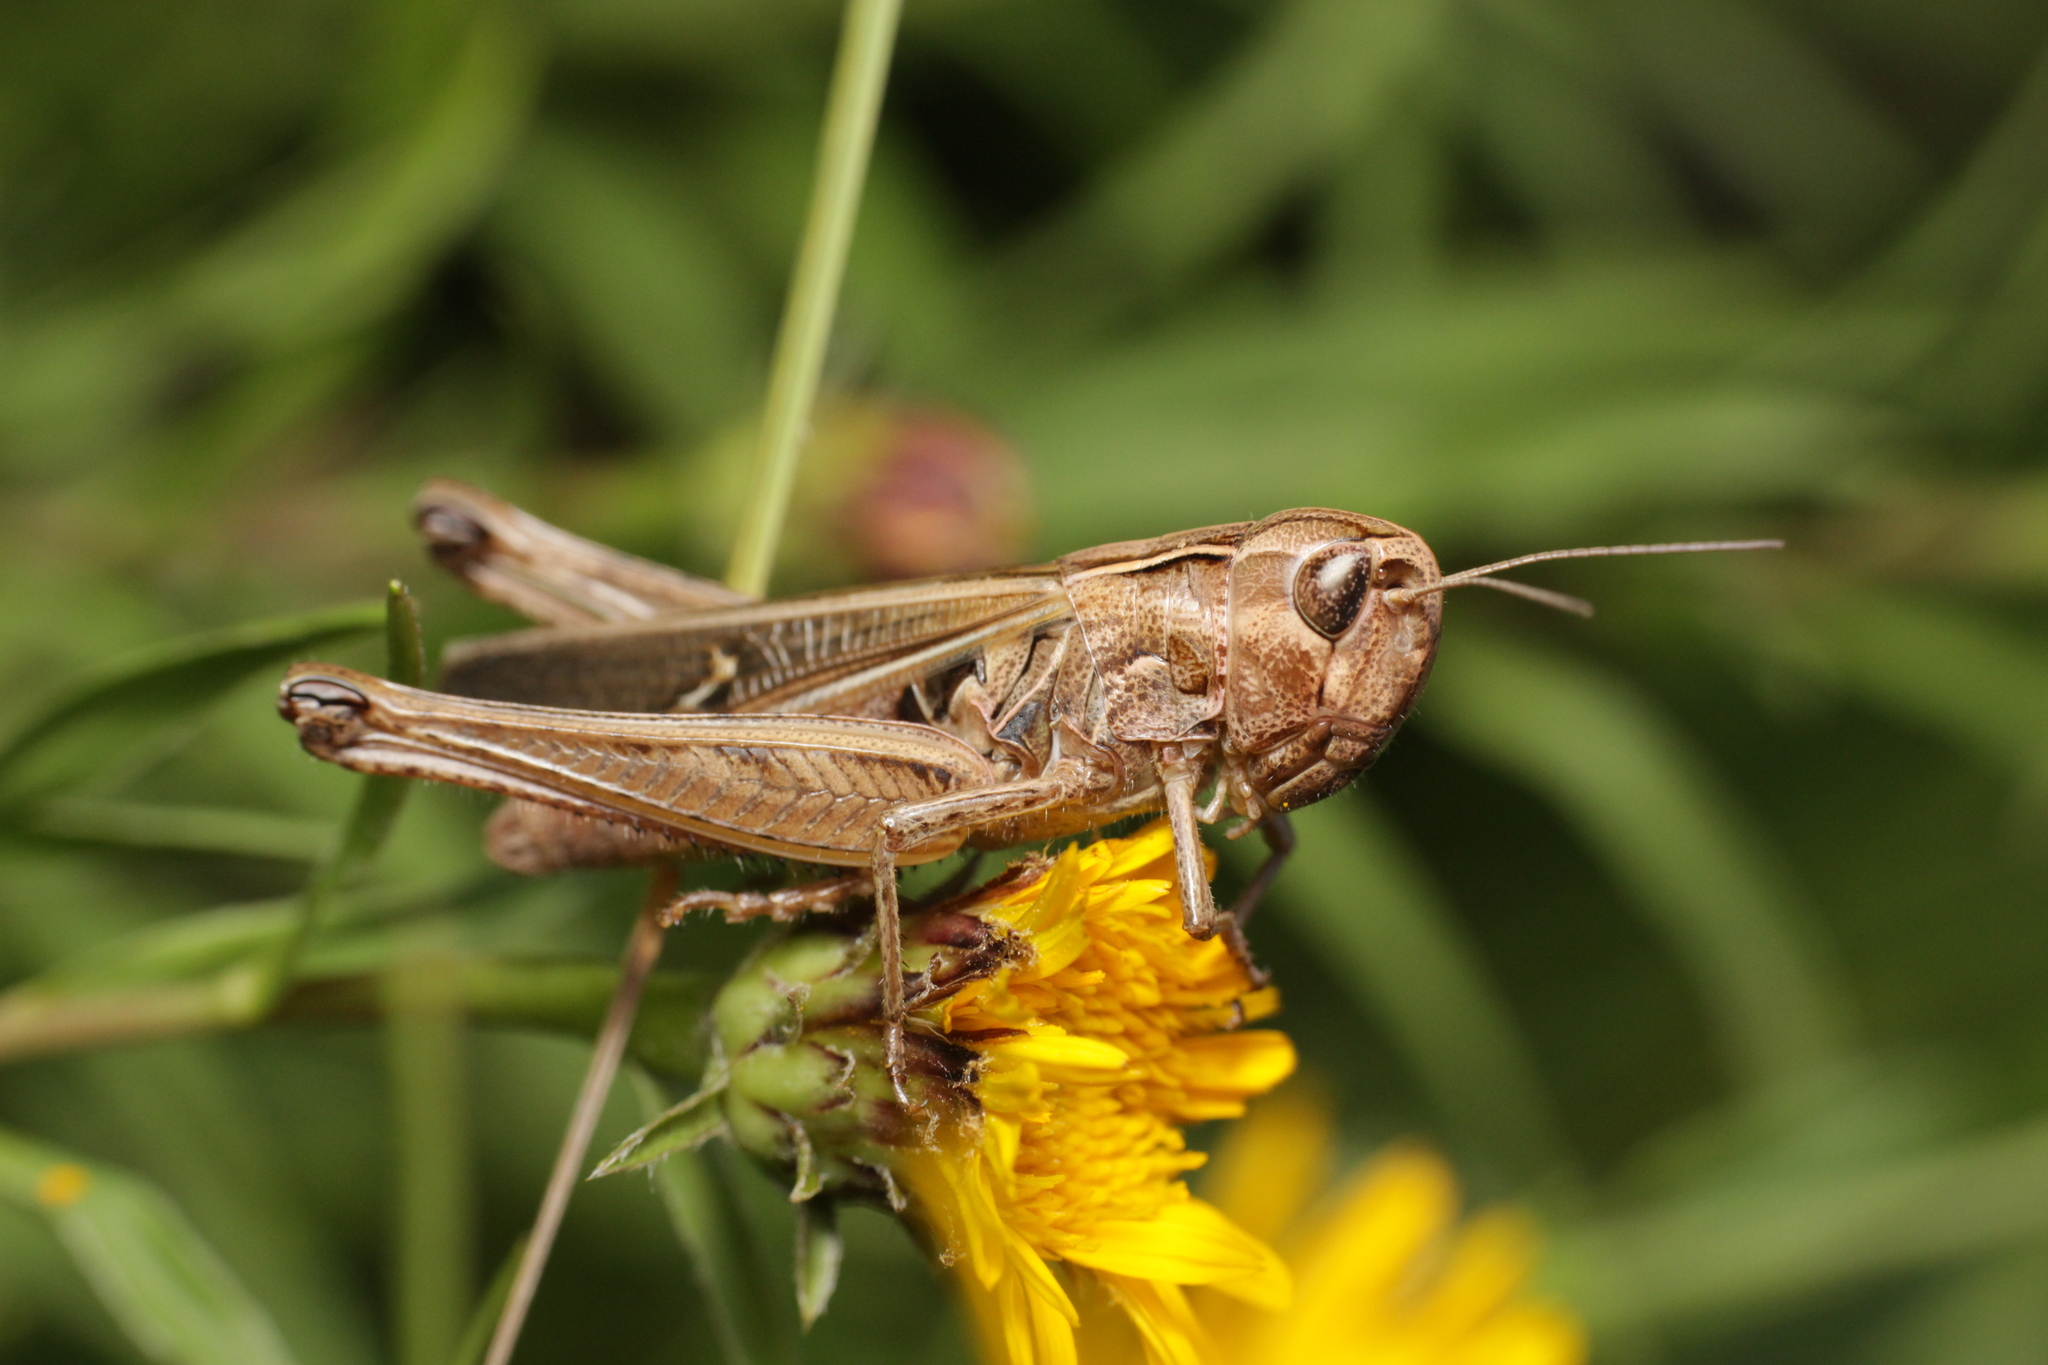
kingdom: Animalia
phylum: Arthropoda
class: Insecta
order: Orthoptera
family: Acrididae
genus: Stenobothrus
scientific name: Stenobothrus lineatus
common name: Stripe-winged grasshopper
